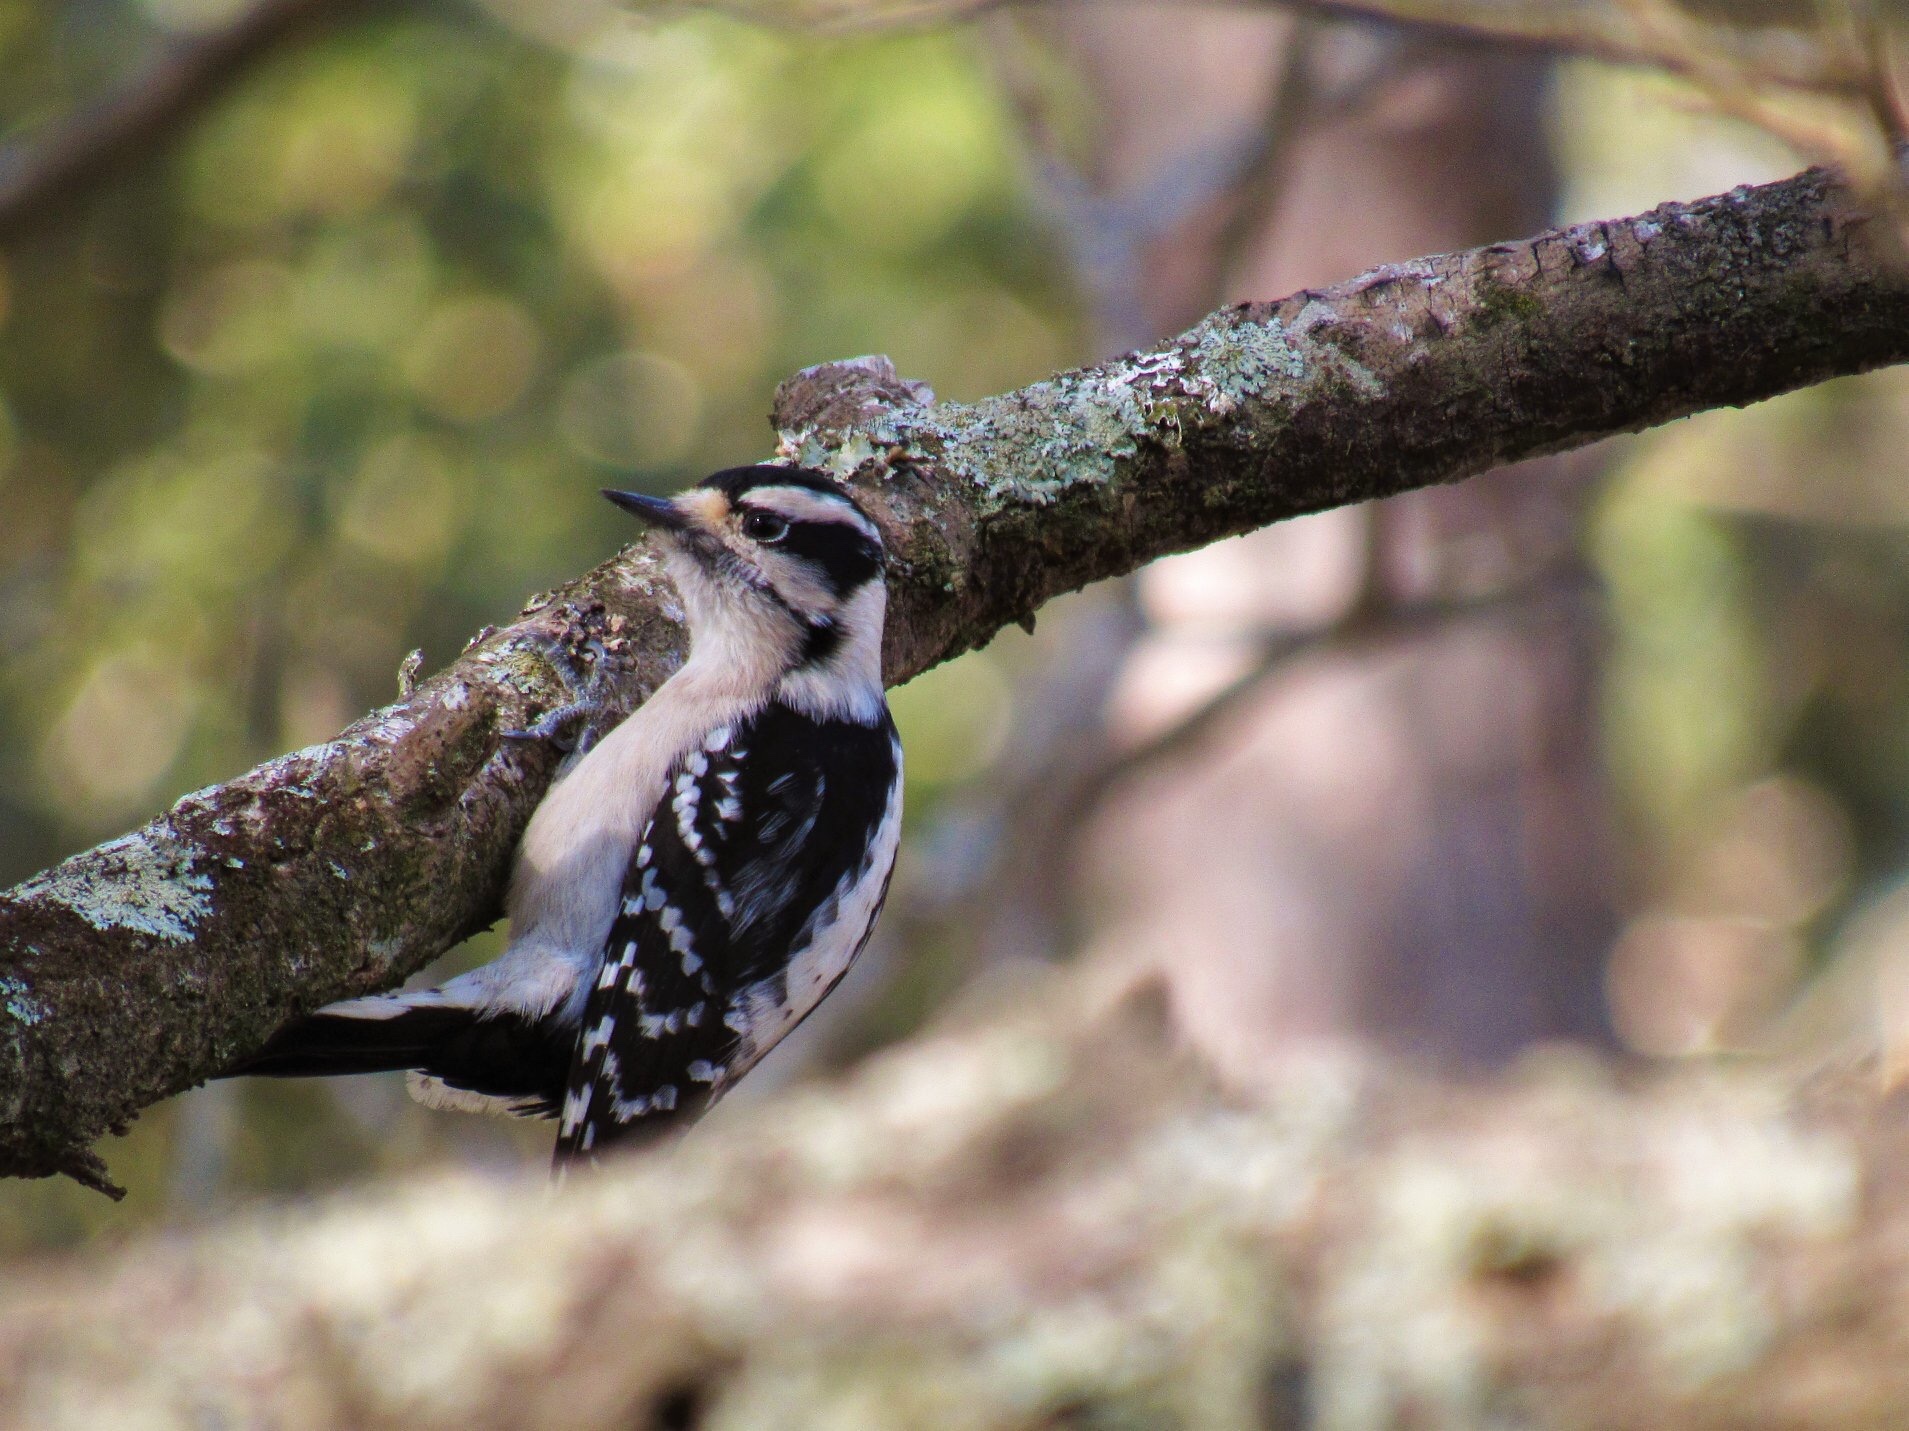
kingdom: Animalia
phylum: Chordata
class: Aves
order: Piciformes
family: Picidae
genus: Dryobates
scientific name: Dryobates pubescens
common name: Downy woodpecker
